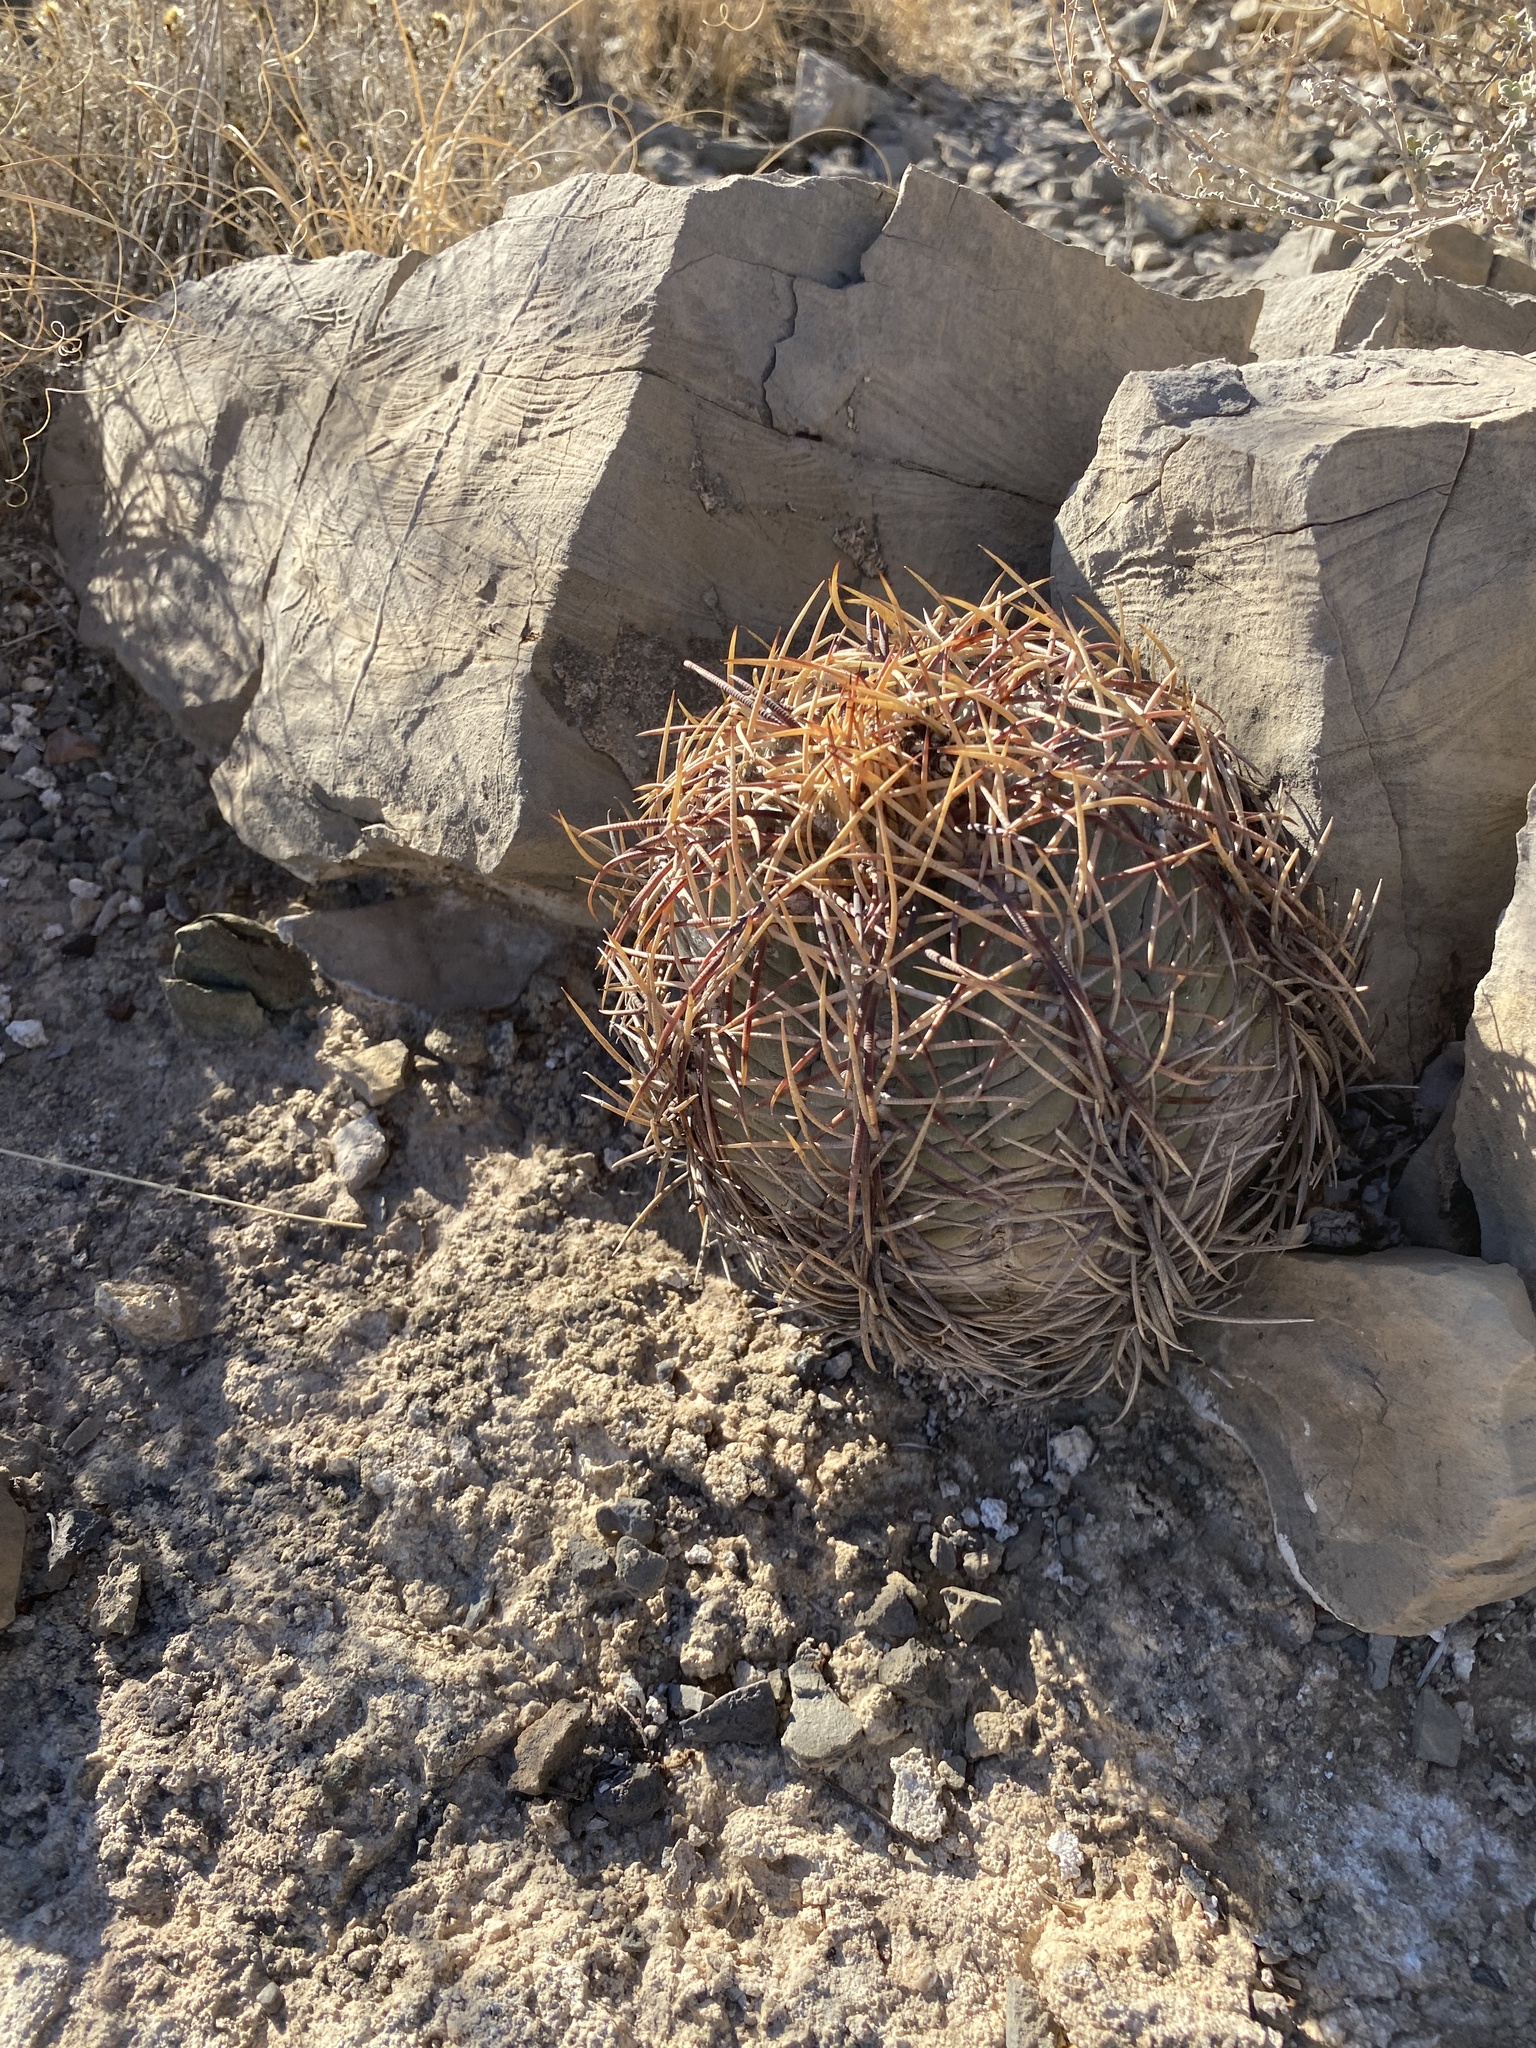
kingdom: Plantae
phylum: Tracheophyta
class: Magnoliopsida
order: Caryophyllales
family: Cactaceae
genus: Echinocactus
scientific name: Echinocactus horizonthalonius
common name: Devilshead
